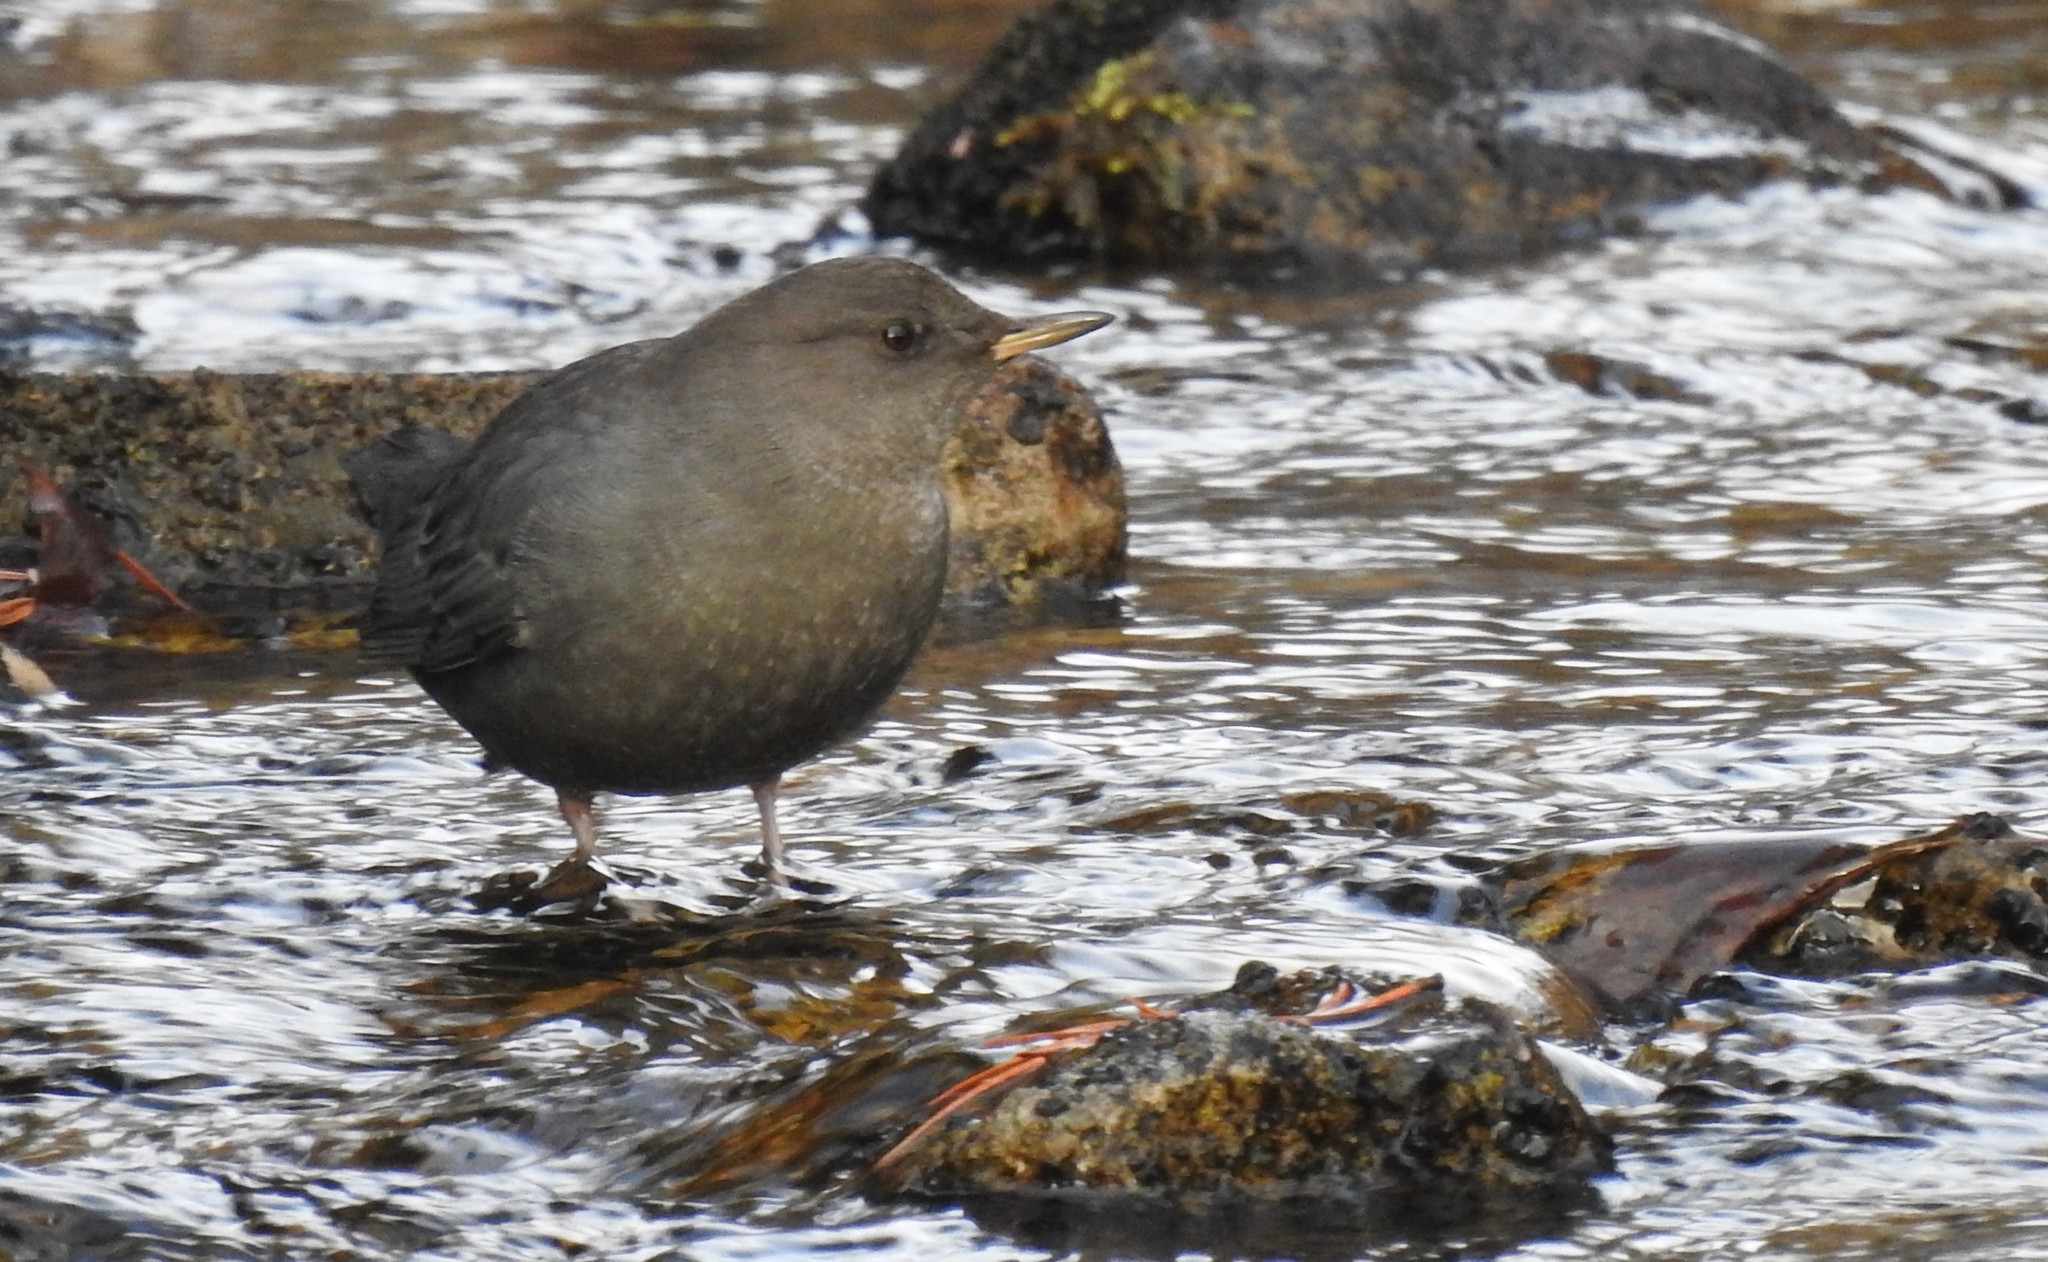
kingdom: Animalia
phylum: Chordata
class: Aves
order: Passeriformes
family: Cinclidae
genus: Cinclus
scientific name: Cinclus mexicanus
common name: American dipper
